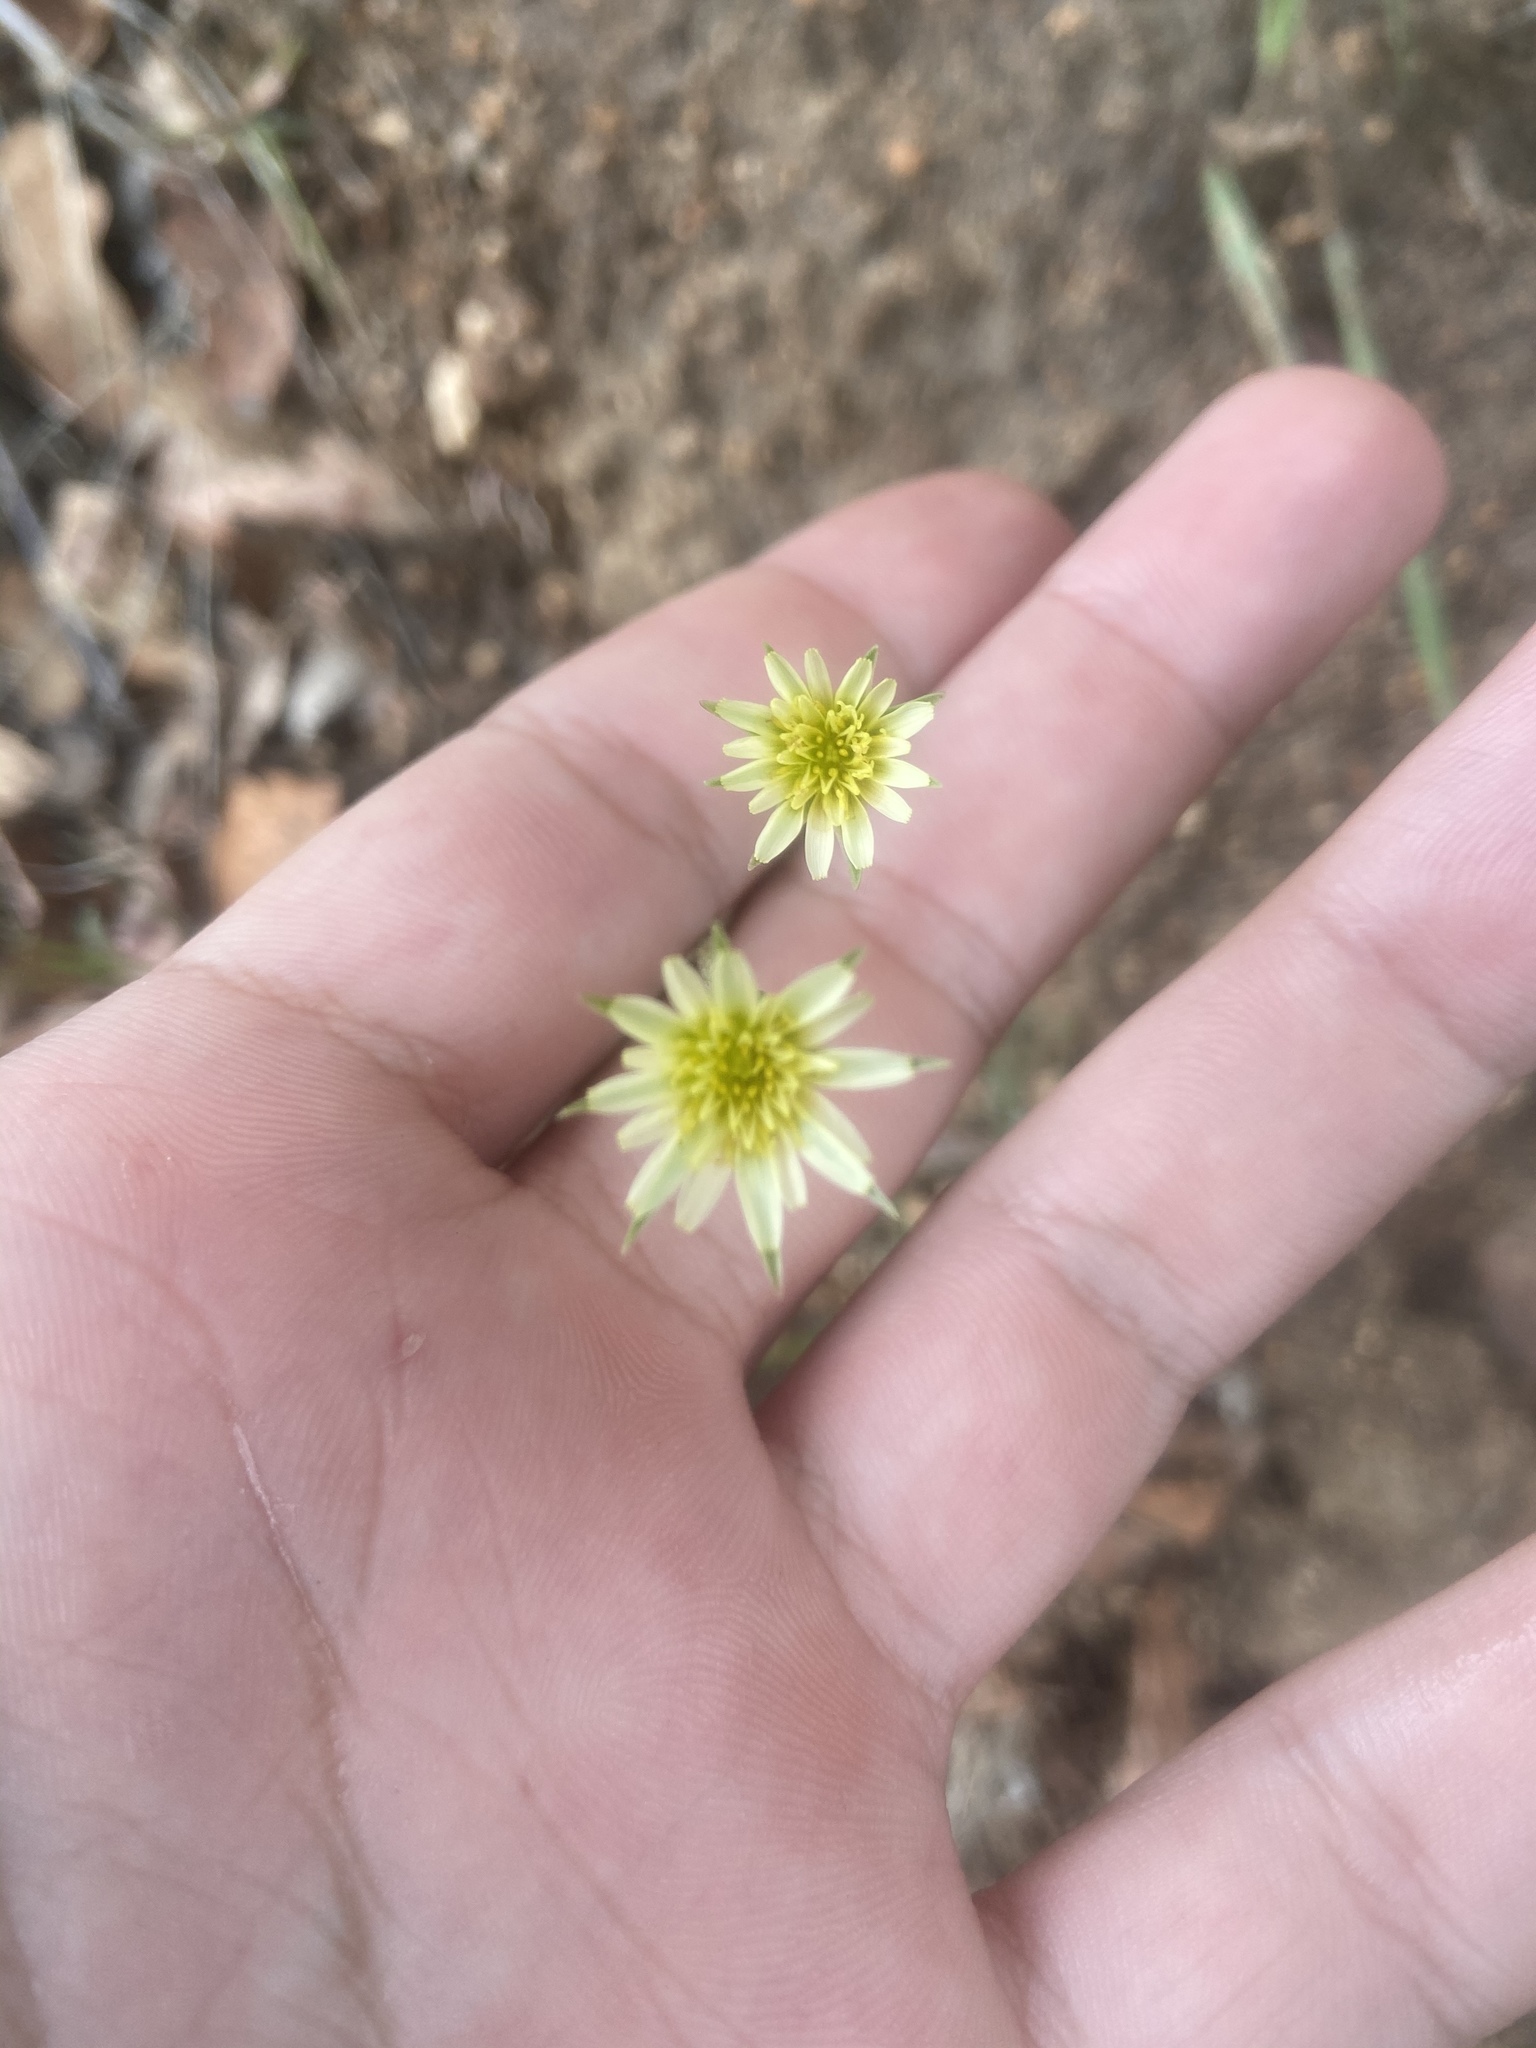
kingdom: Plantae
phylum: Tracheophyta
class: Magnoliopsida
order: Asterales
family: Asteraceae
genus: Microseris
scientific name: Microseris lindleyi
